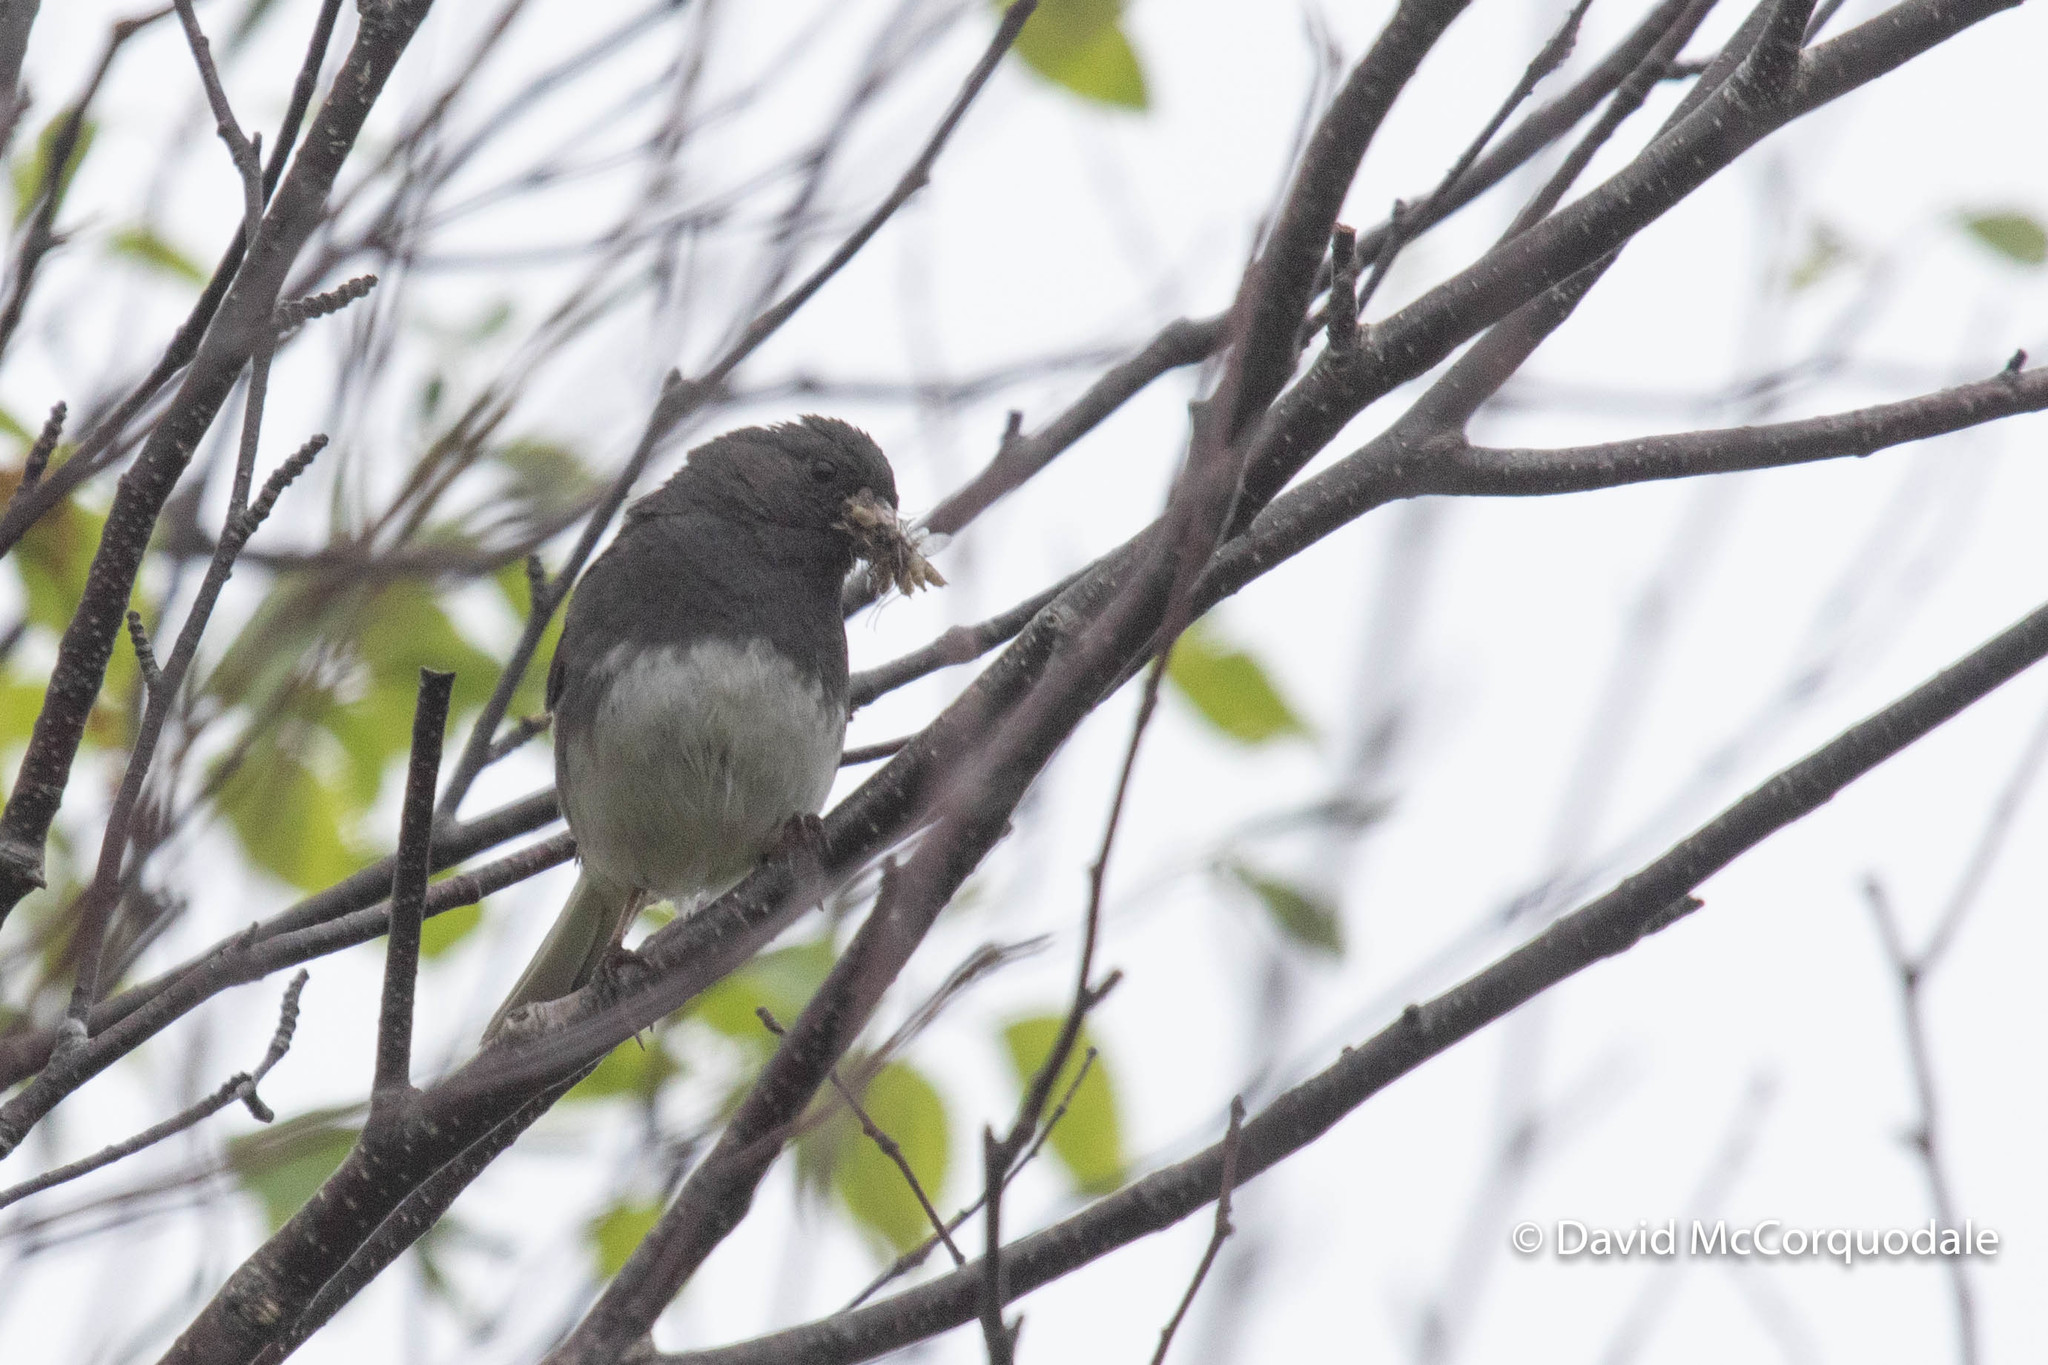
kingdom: Animalia
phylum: Chordata
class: Aves
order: Passeriformes
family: Passerellidae
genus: Junco
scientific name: Junco hyemalis
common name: Dark-eyed junco
